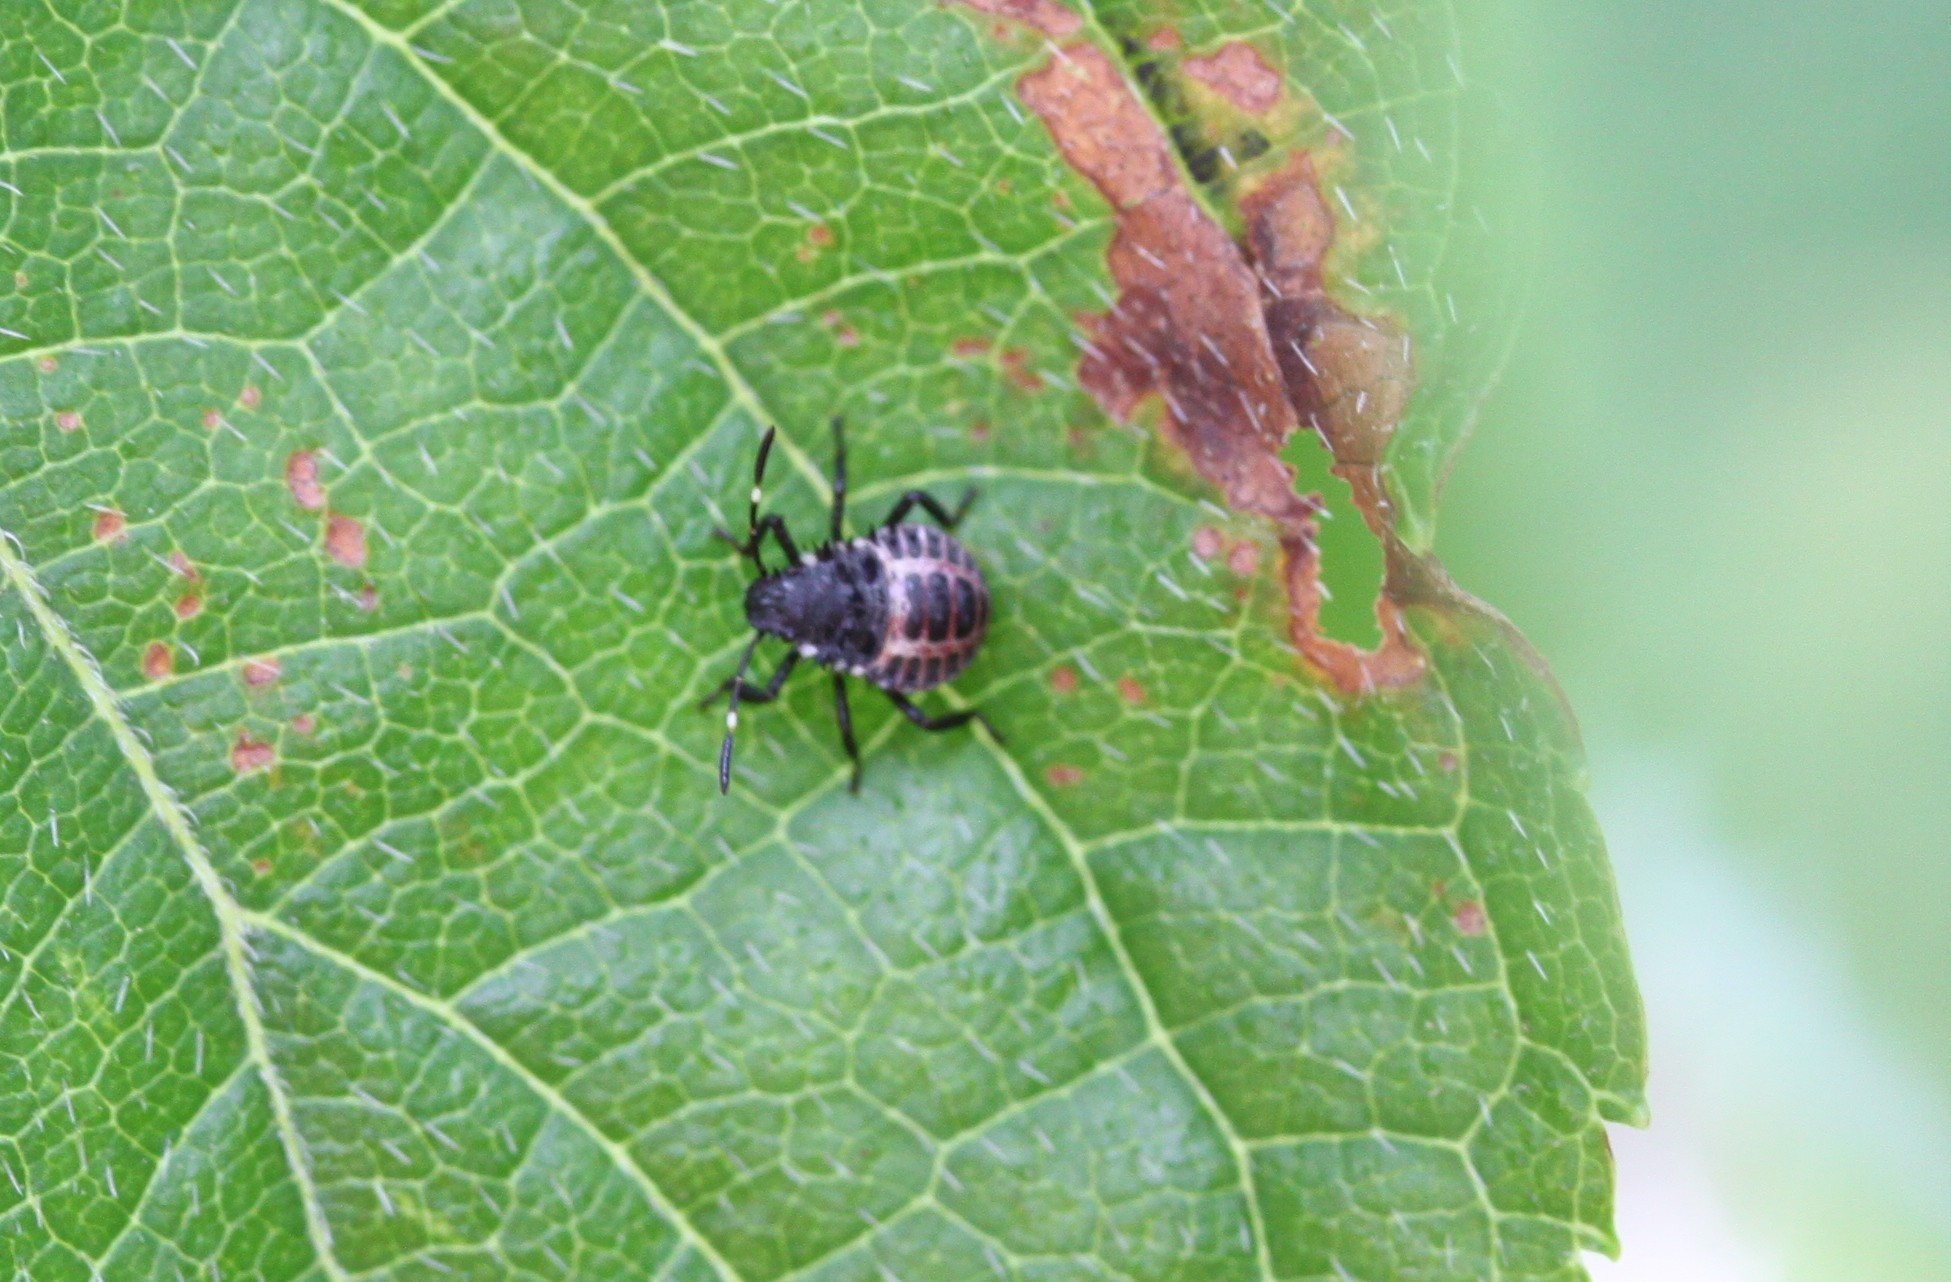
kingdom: Animalia
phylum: Arthropoda
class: Insecta
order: Hemiptera
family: Pentatomidae
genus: Halyomorpha
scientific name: Halyomorpha halys
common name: Brown marmorated stink bug
